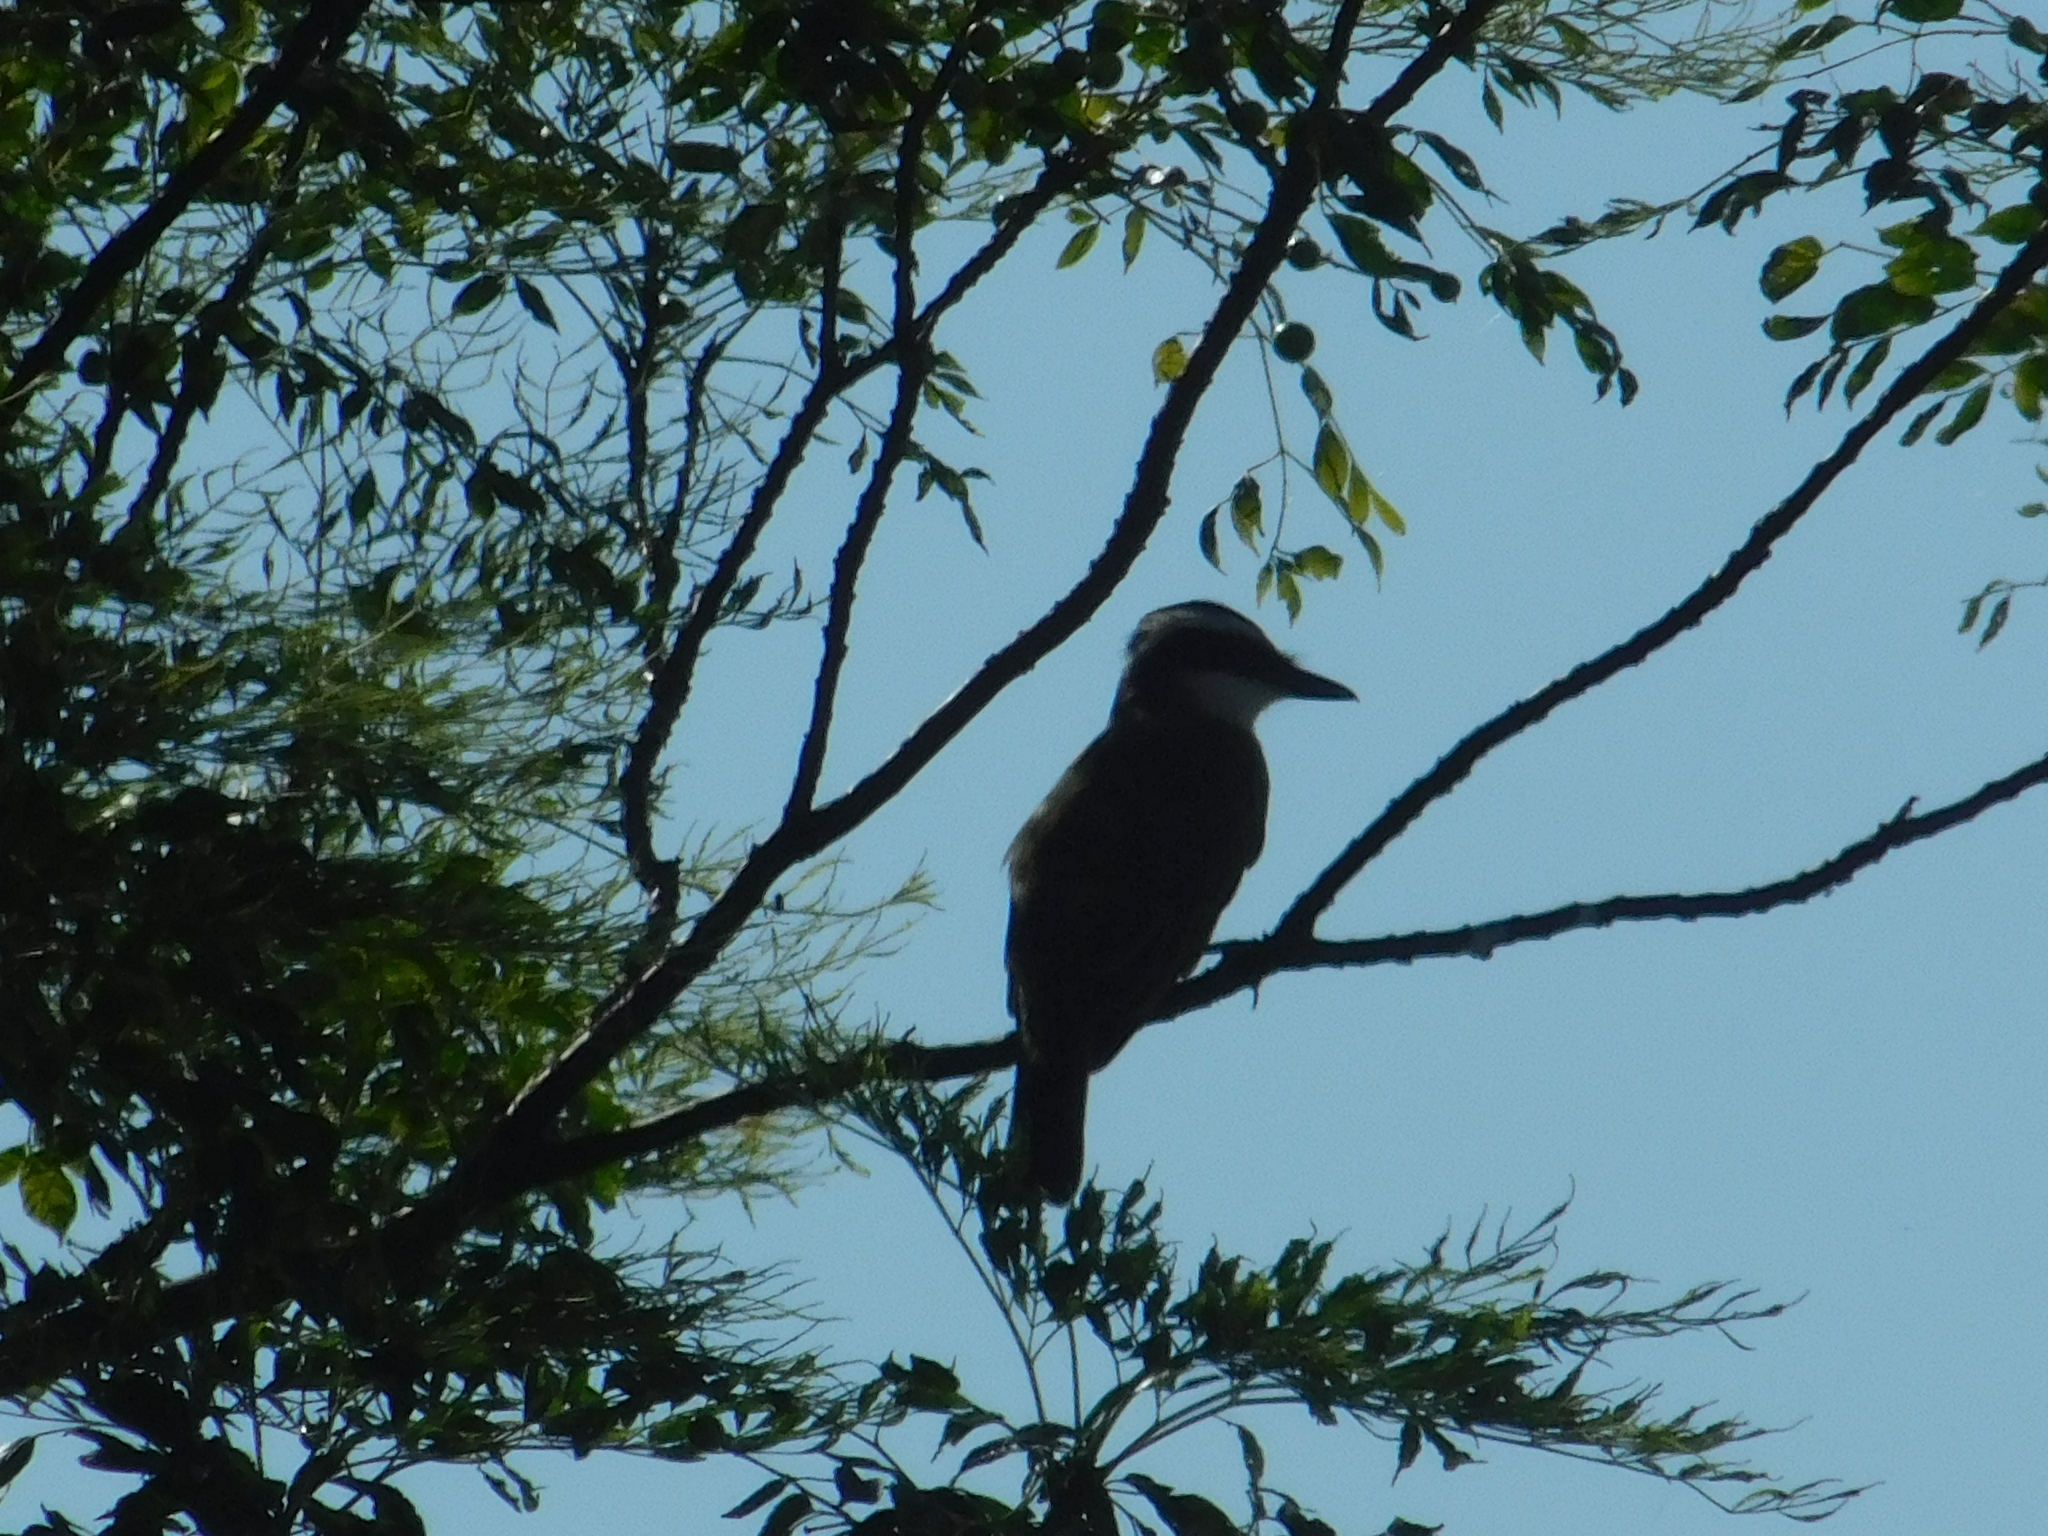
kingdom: Animalia
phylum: Chordata
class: Aves
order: Passeriformes
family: Tyrannidae
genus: Pitangus
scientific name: Pitangus sulphuratus
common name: Great kiskadee
